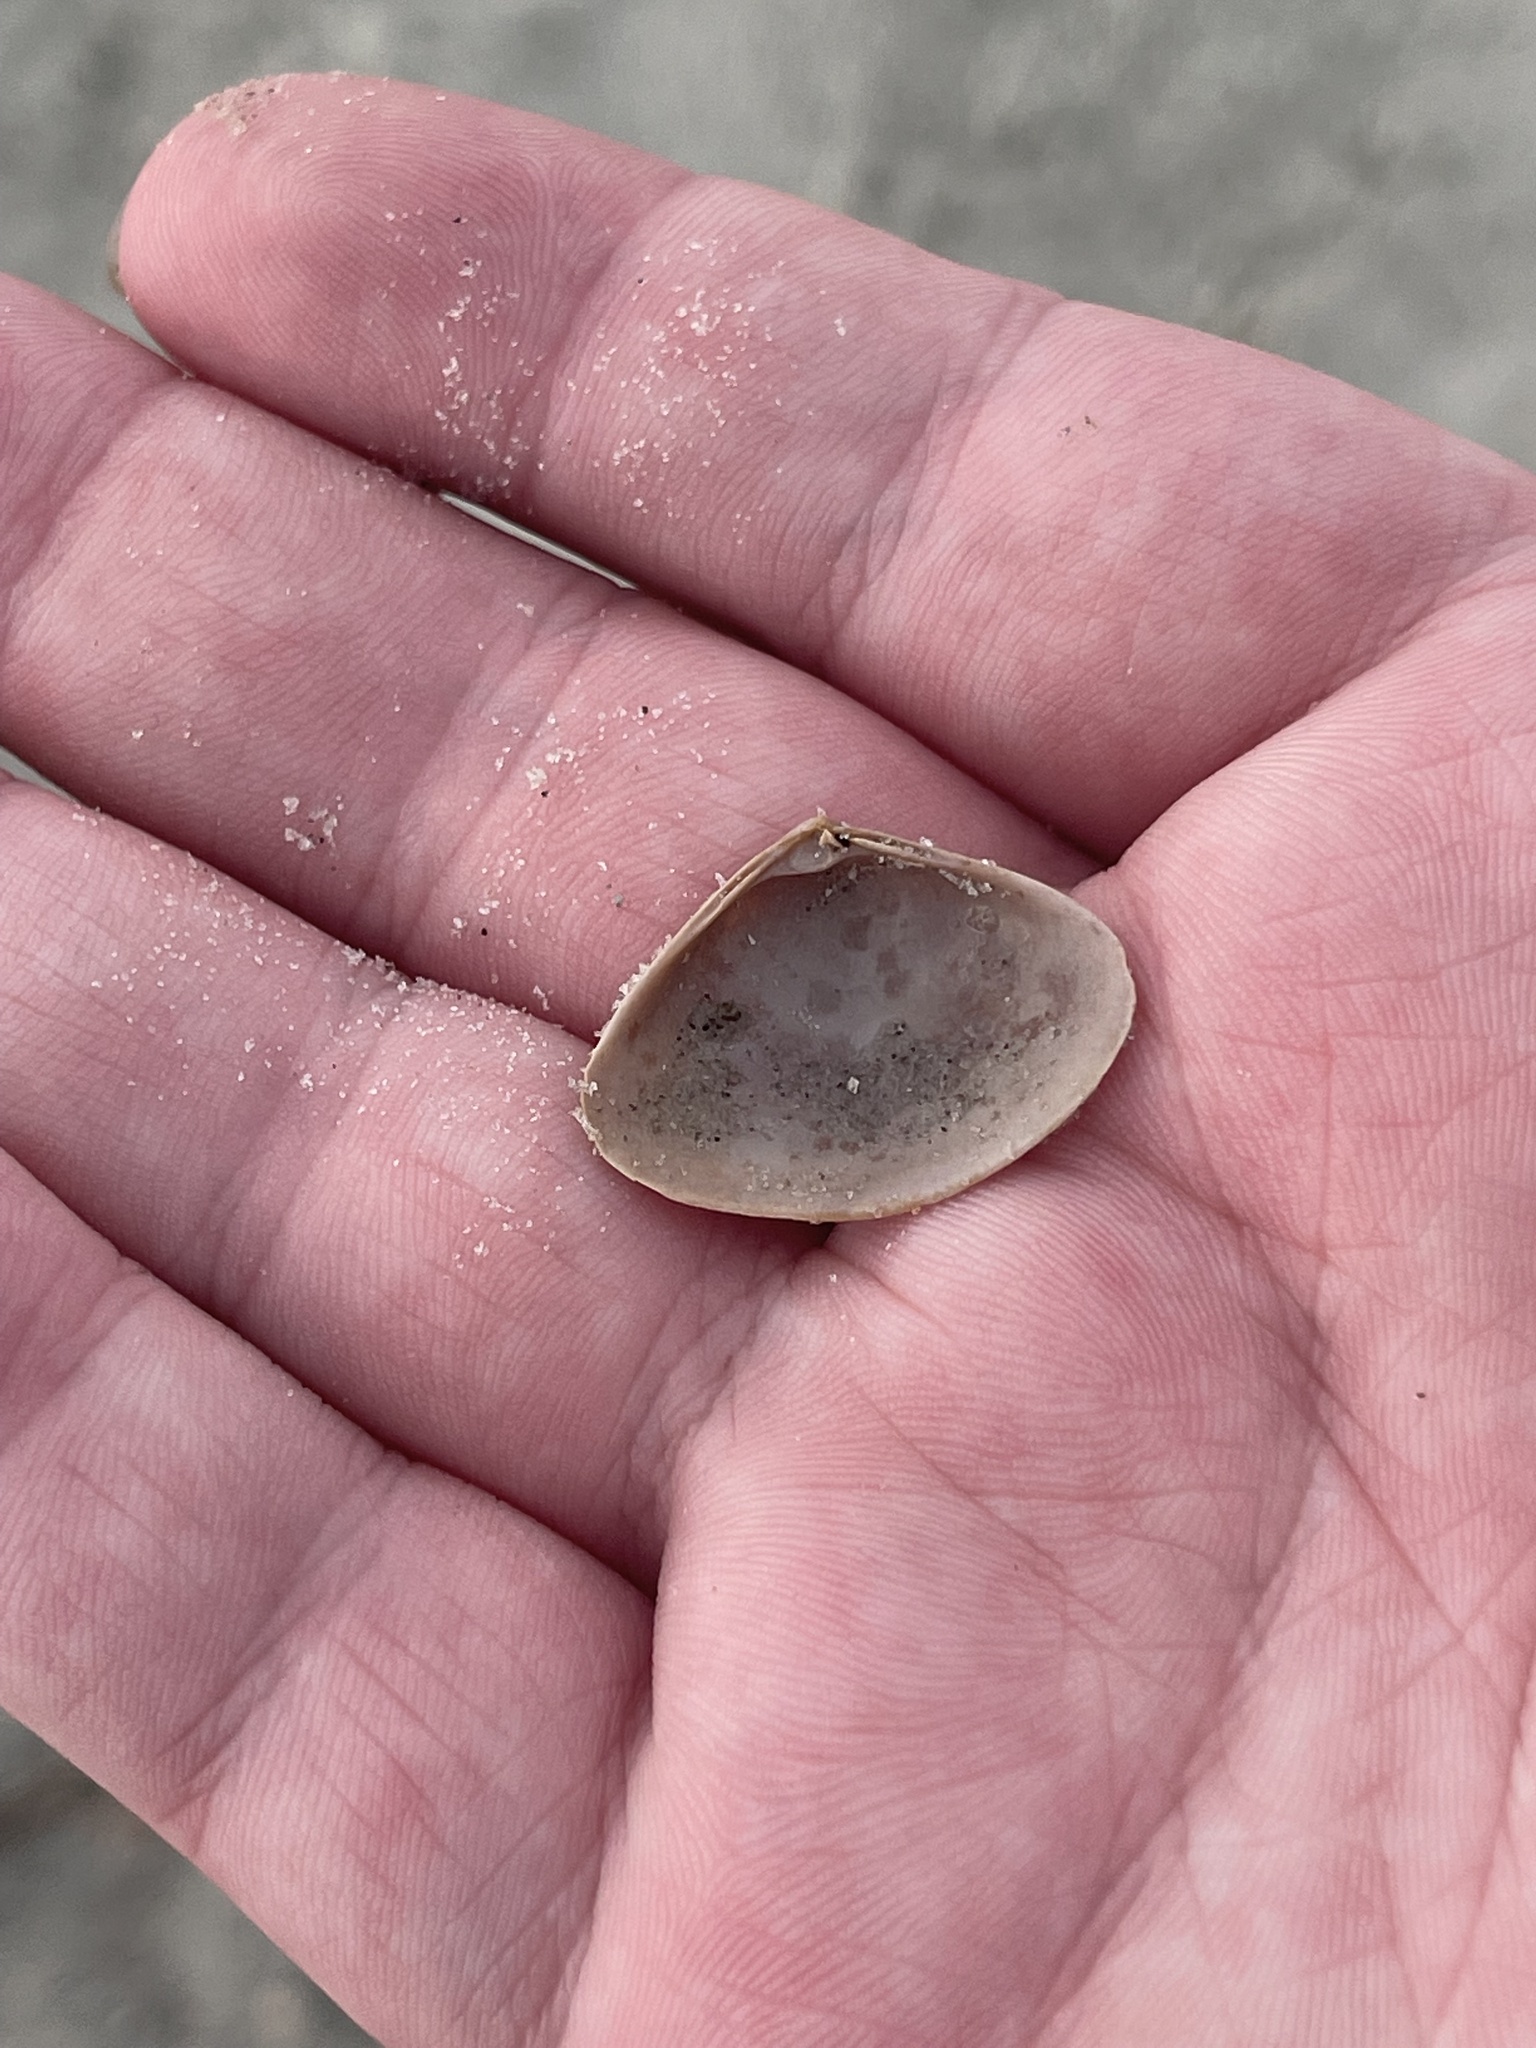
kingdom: Animalia
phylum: Mollusca
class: Bivalvia
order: Venerida
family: Mactridae
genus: Spisula
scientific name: Spisula raveneli
